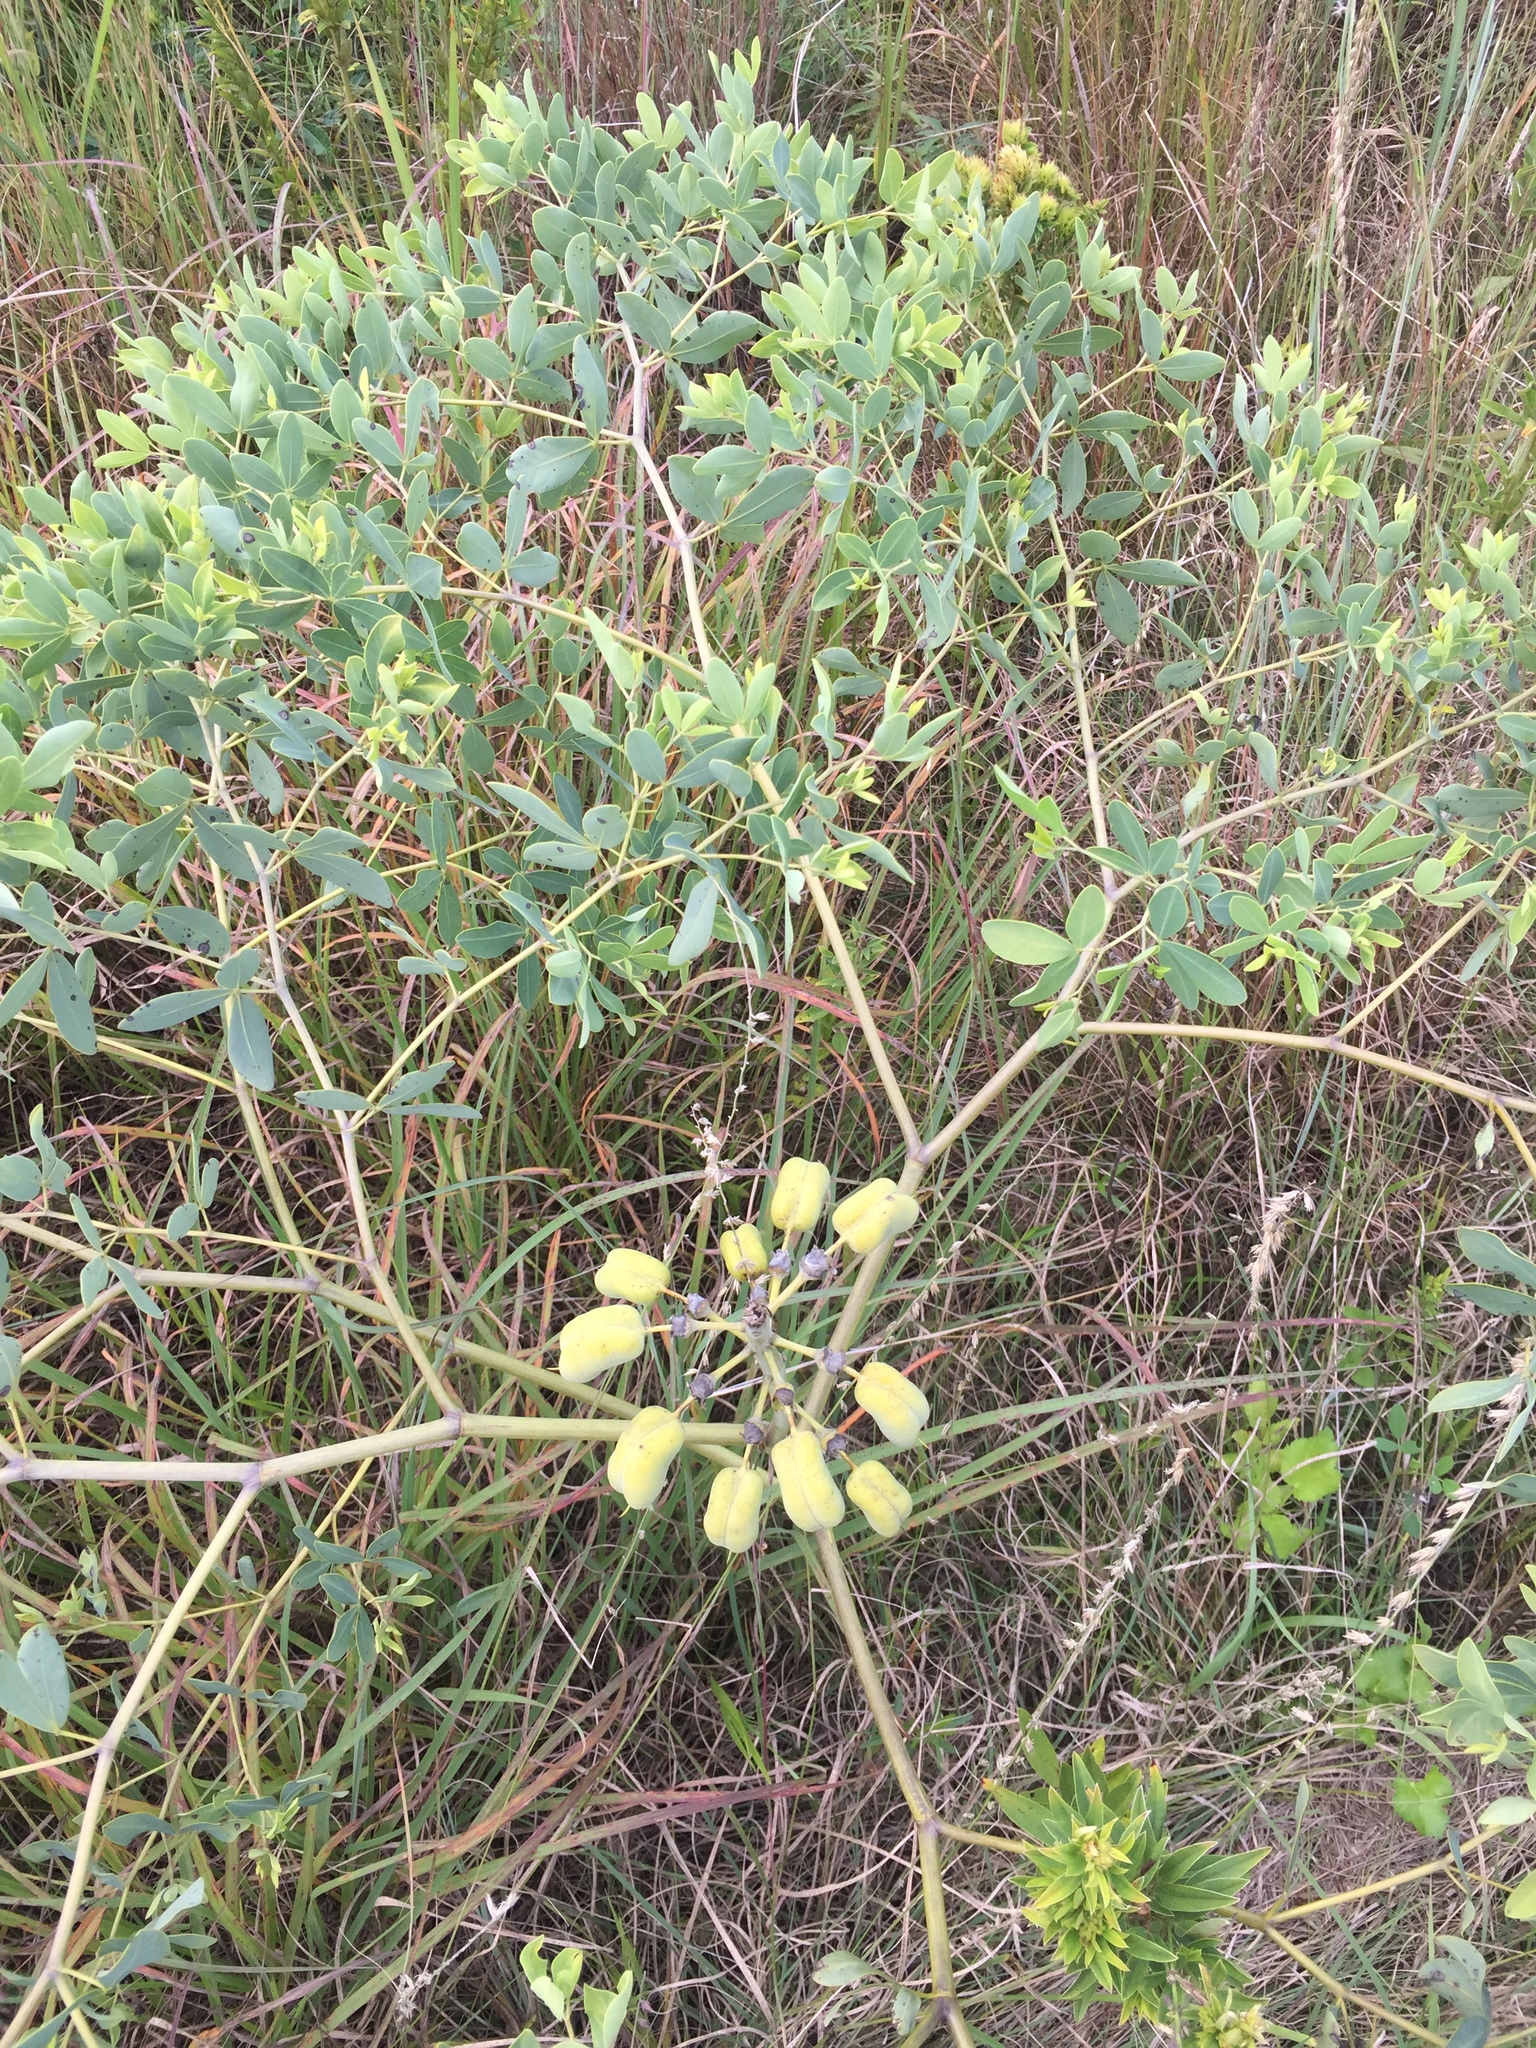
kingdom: Plantae
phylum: Tracheophyta
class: Magnoliopsida
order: Fabales
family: Fabaceae
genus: Baptisia
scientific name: Baptisia alba
